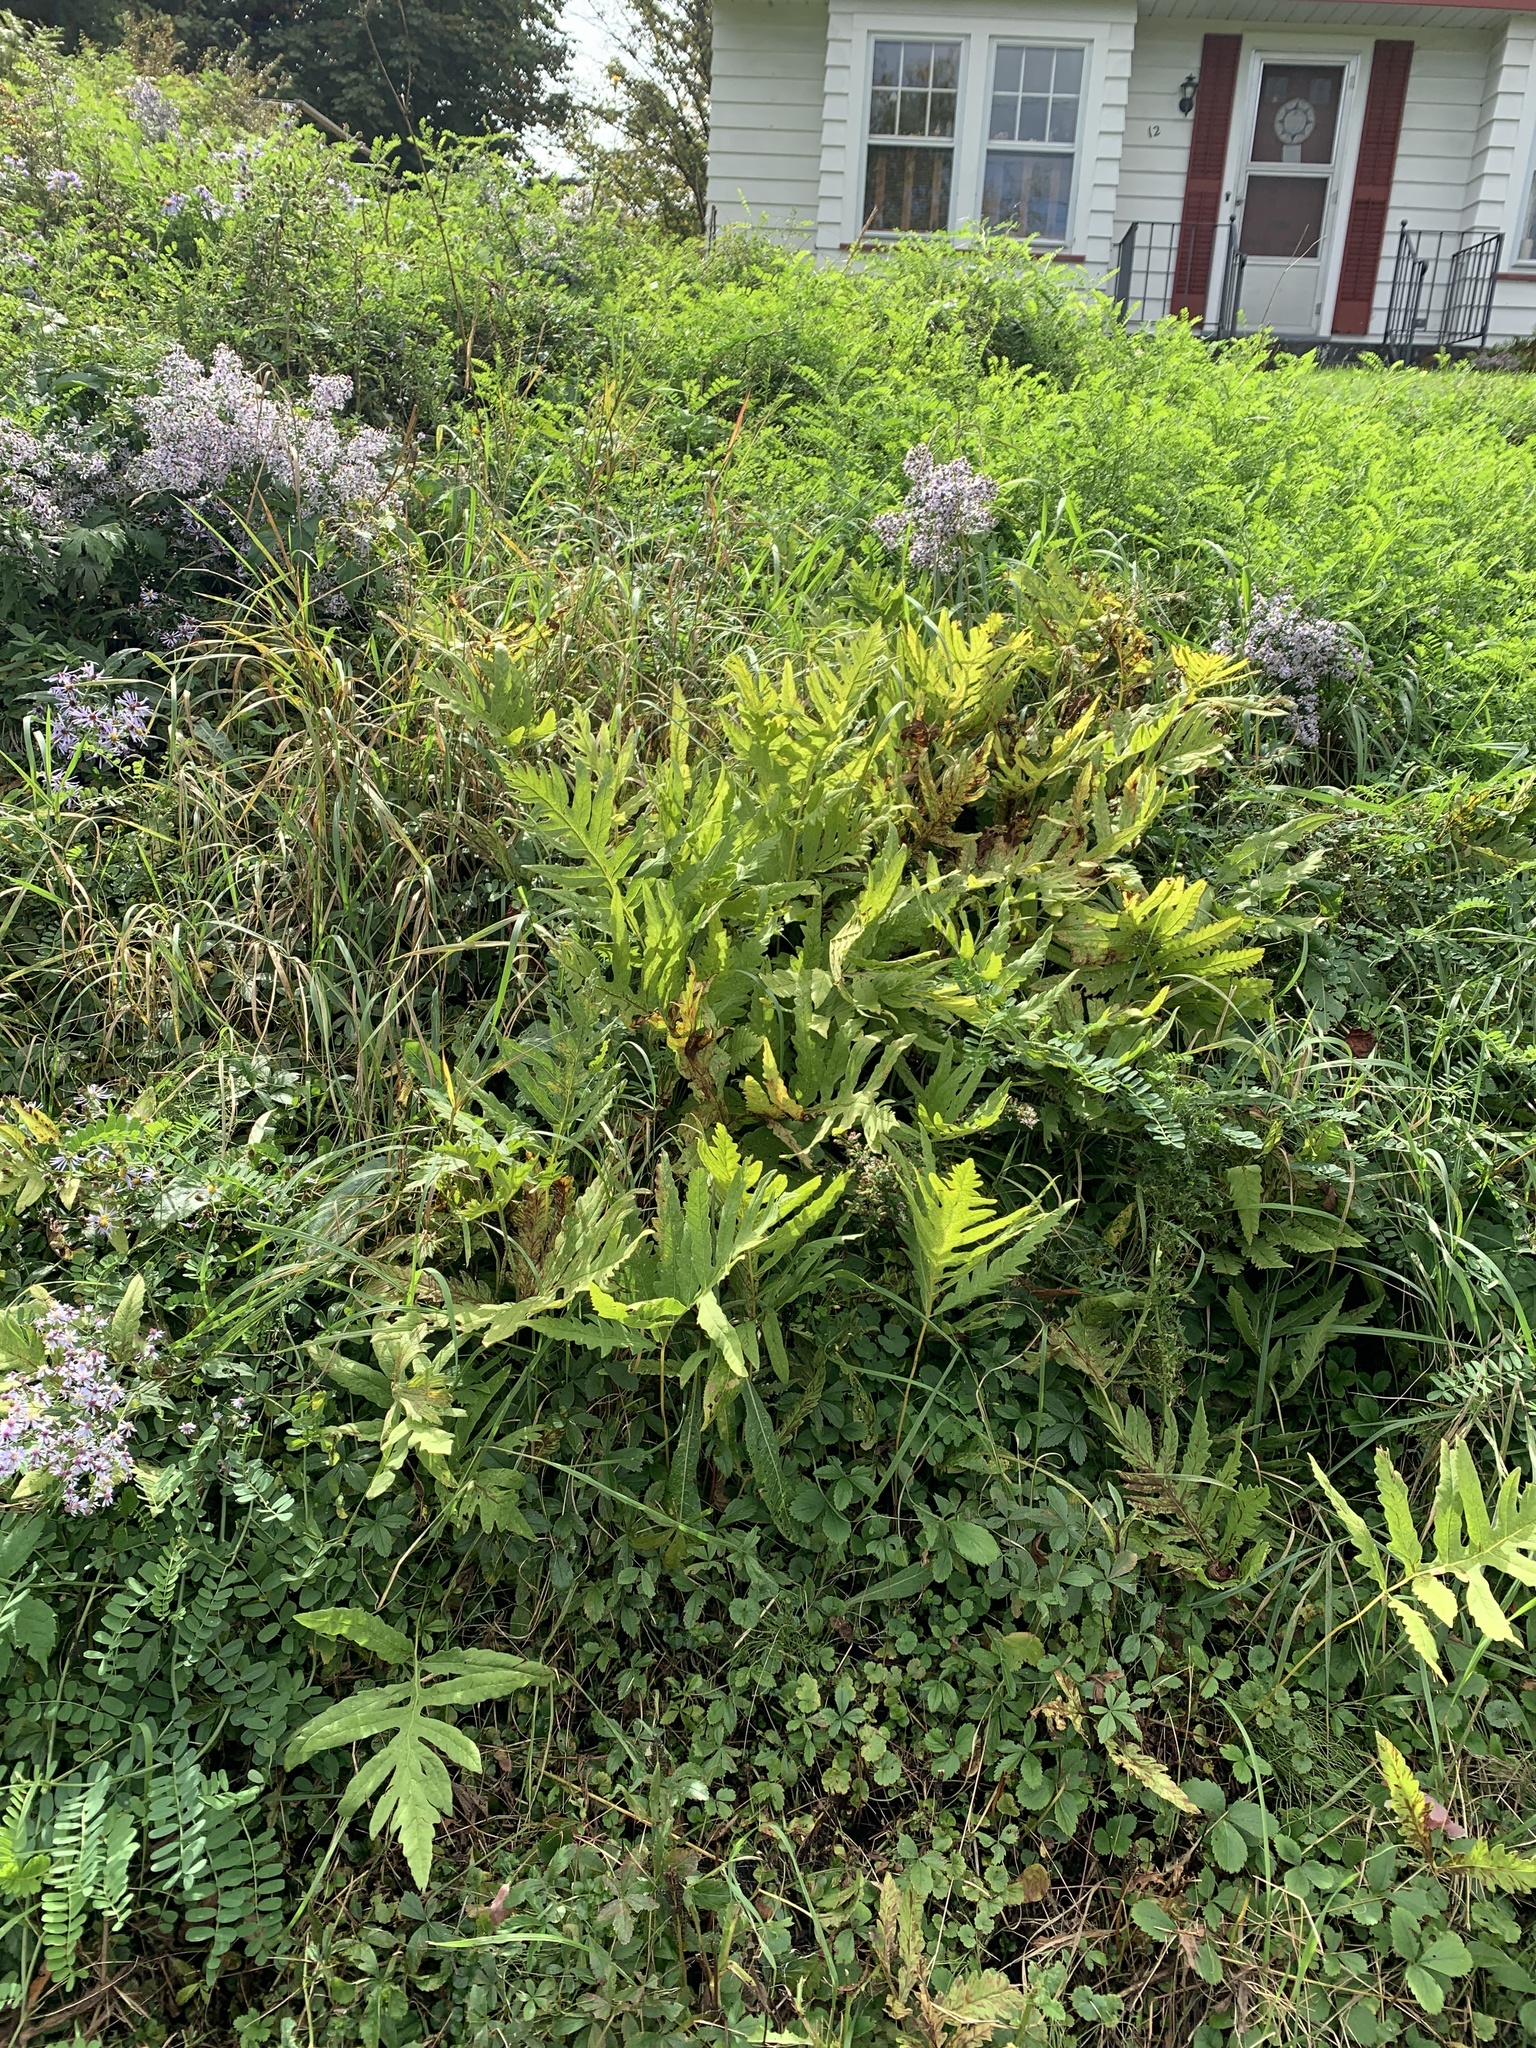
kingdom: Plantae
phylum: Tracheophyta
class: Polypodiopsida
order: Polypodiales
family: Onocleaceae
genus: Onoclea
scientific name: Onoclea sensibilis
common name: Sensitive fern
